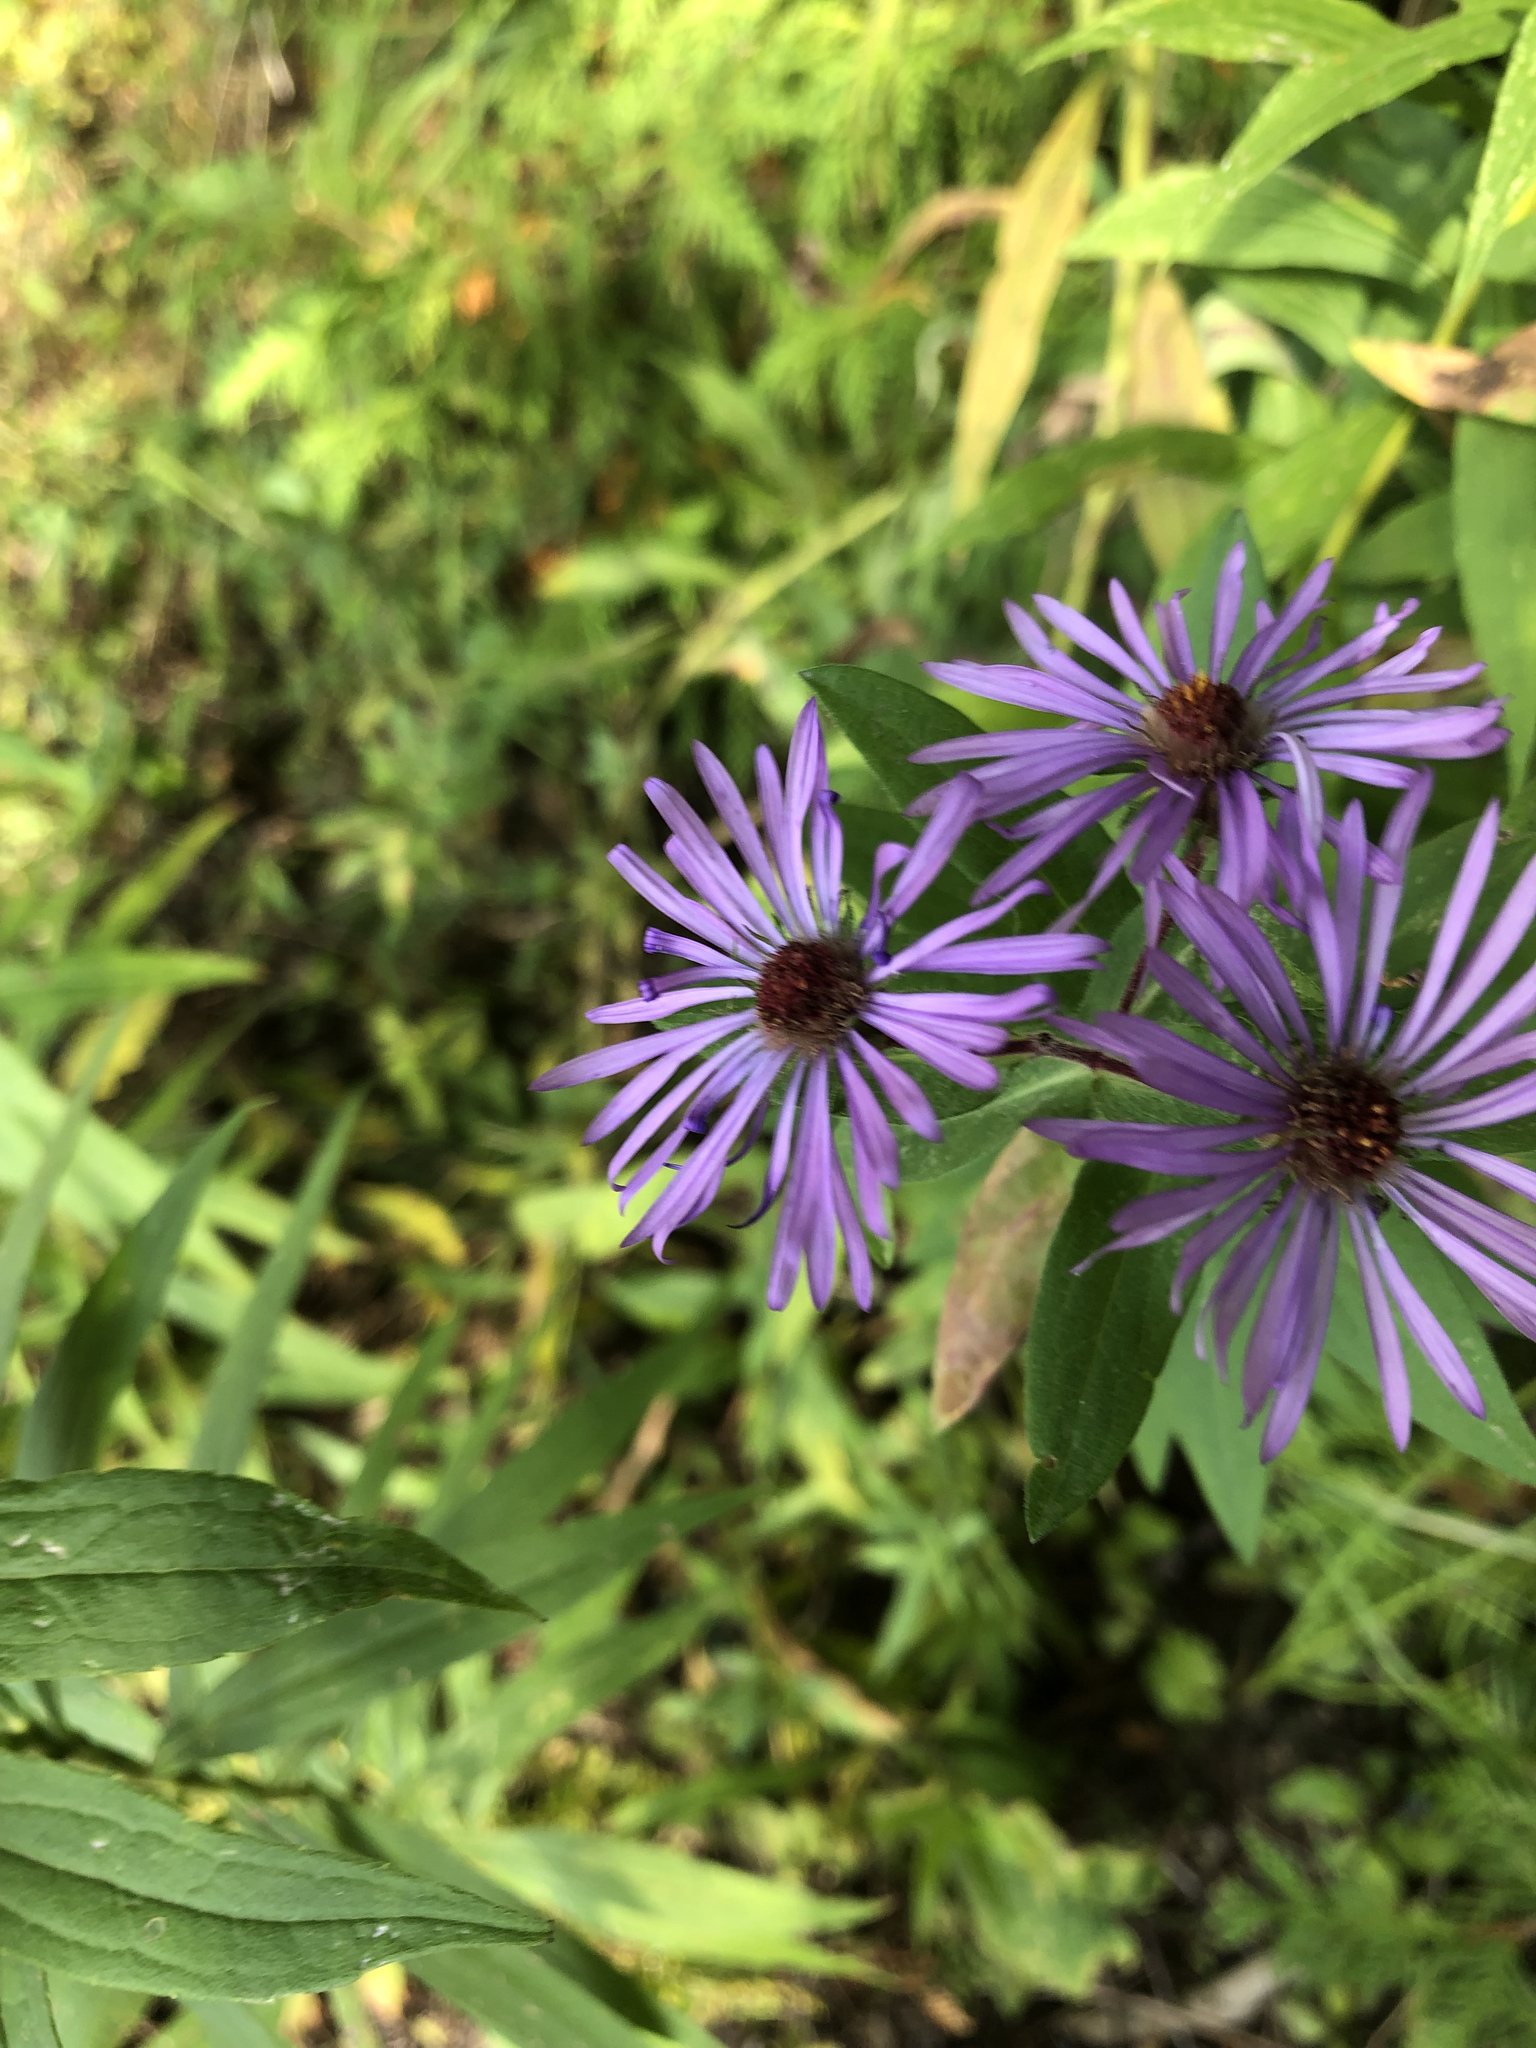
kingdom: Plantae
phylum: Tracheophyta
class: Magnoliopsida
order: Asterales
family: Asteraceae
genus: Symphyotrichum
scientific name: Symphyotrichum novae-angliae
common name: Michaelmas daisy
